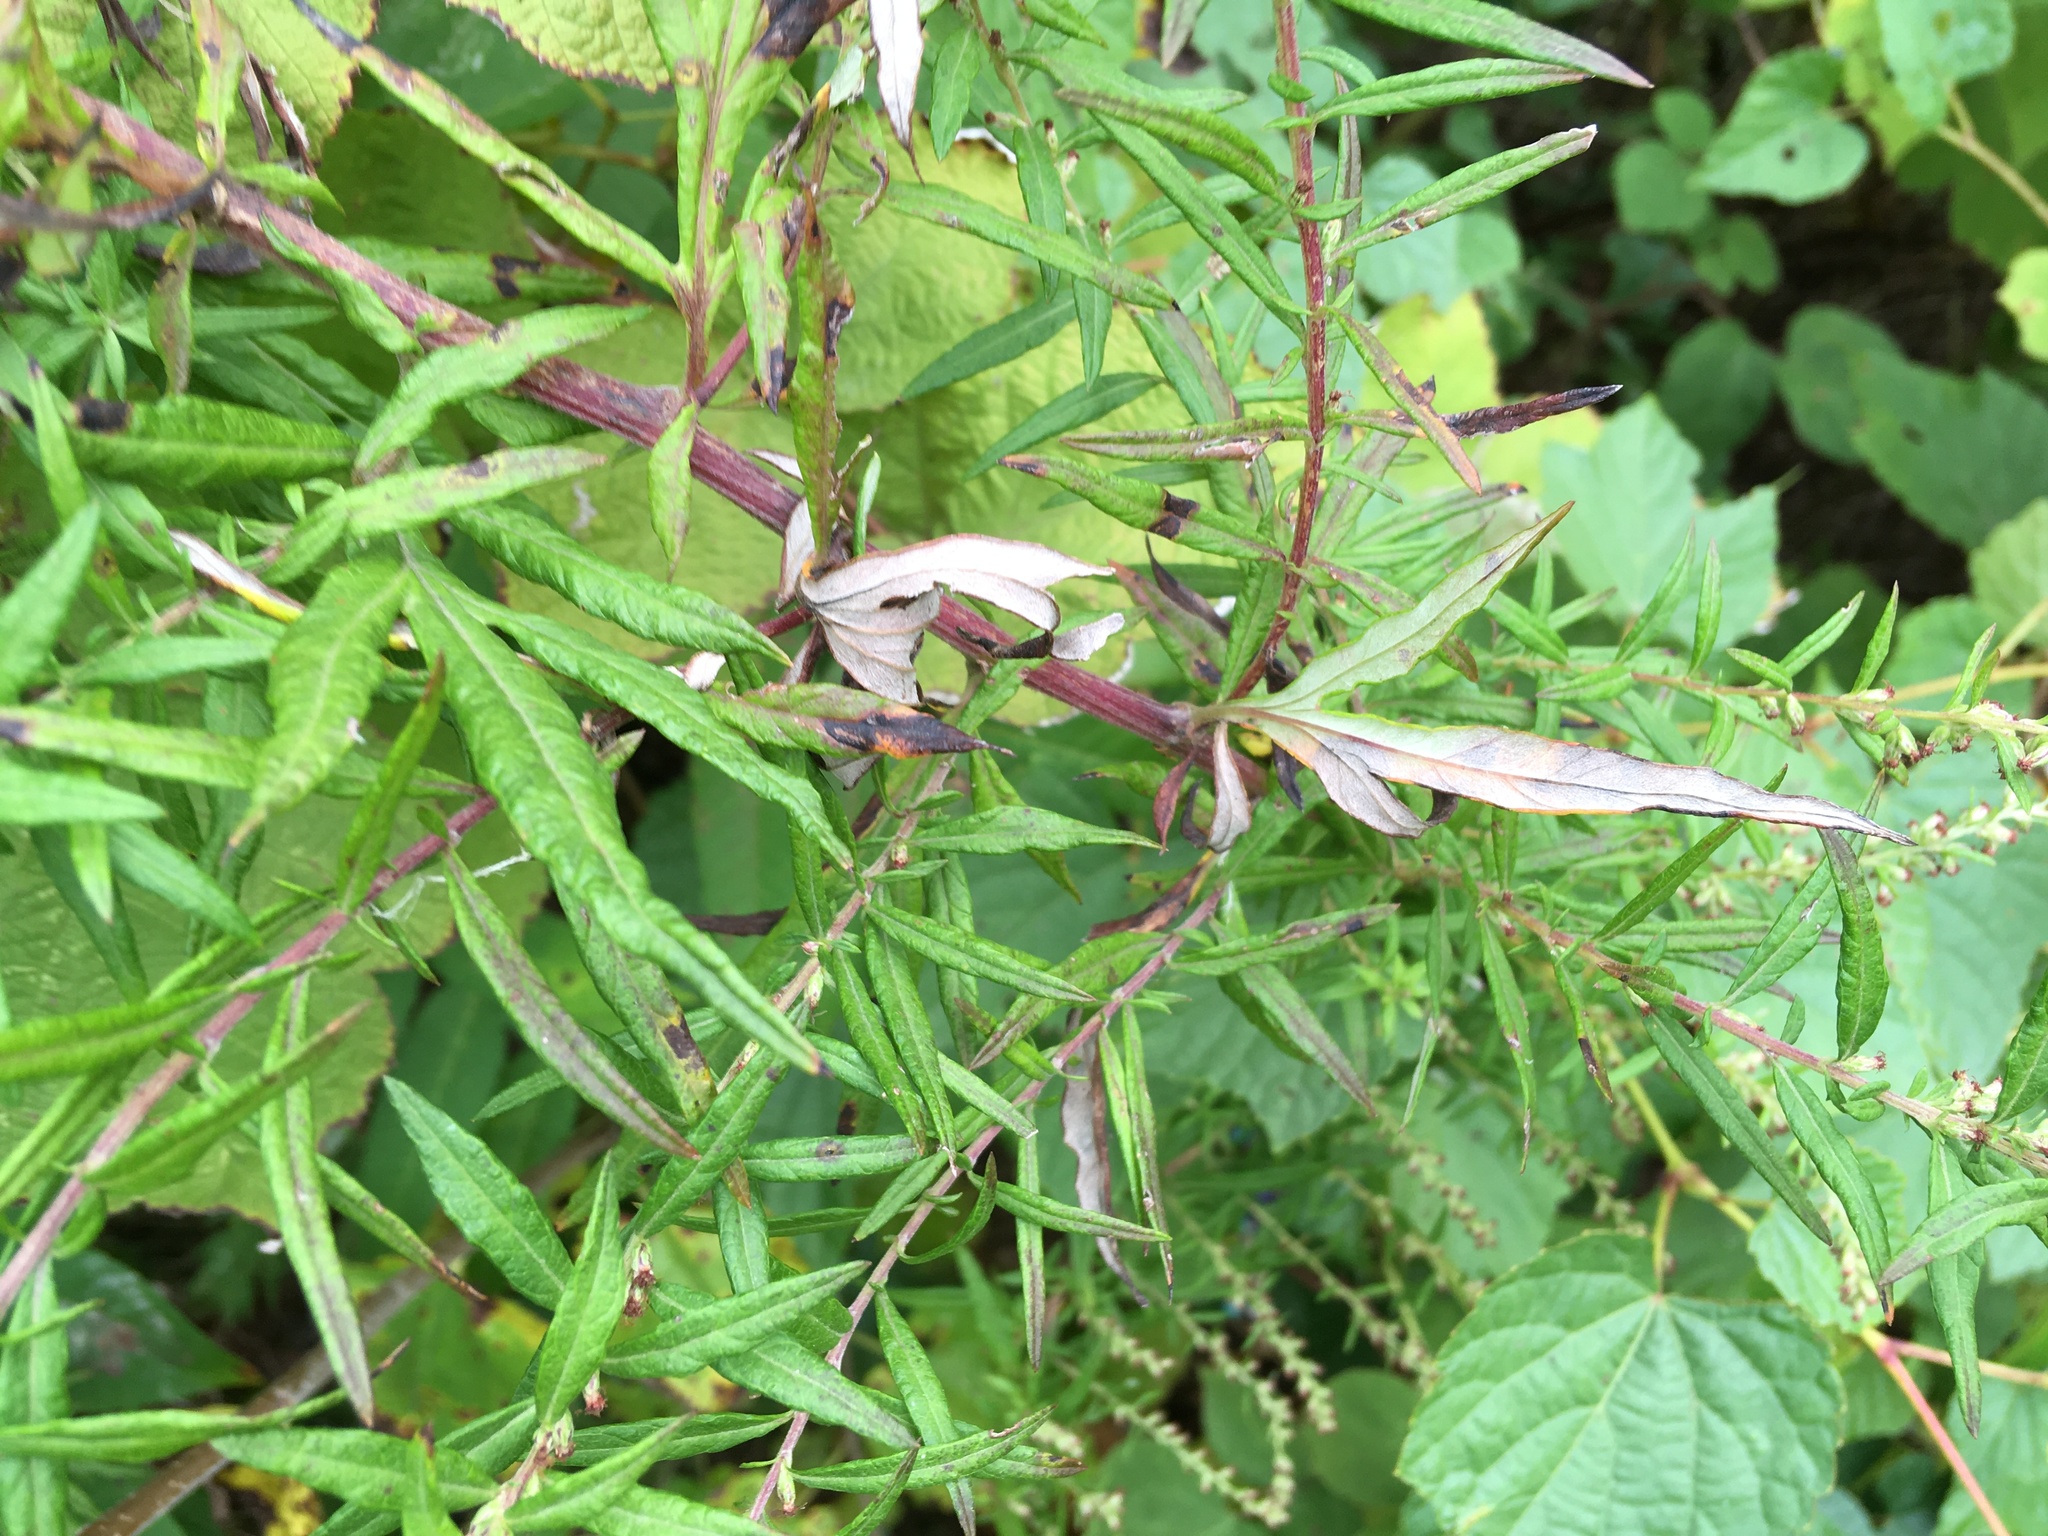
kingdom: Plantae
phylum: Tracheophyta
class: Magnoliopsida
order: Asterales
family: Asteraceae
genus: Artemisia
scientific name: Artemisia vulgaris
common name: Mugwort
